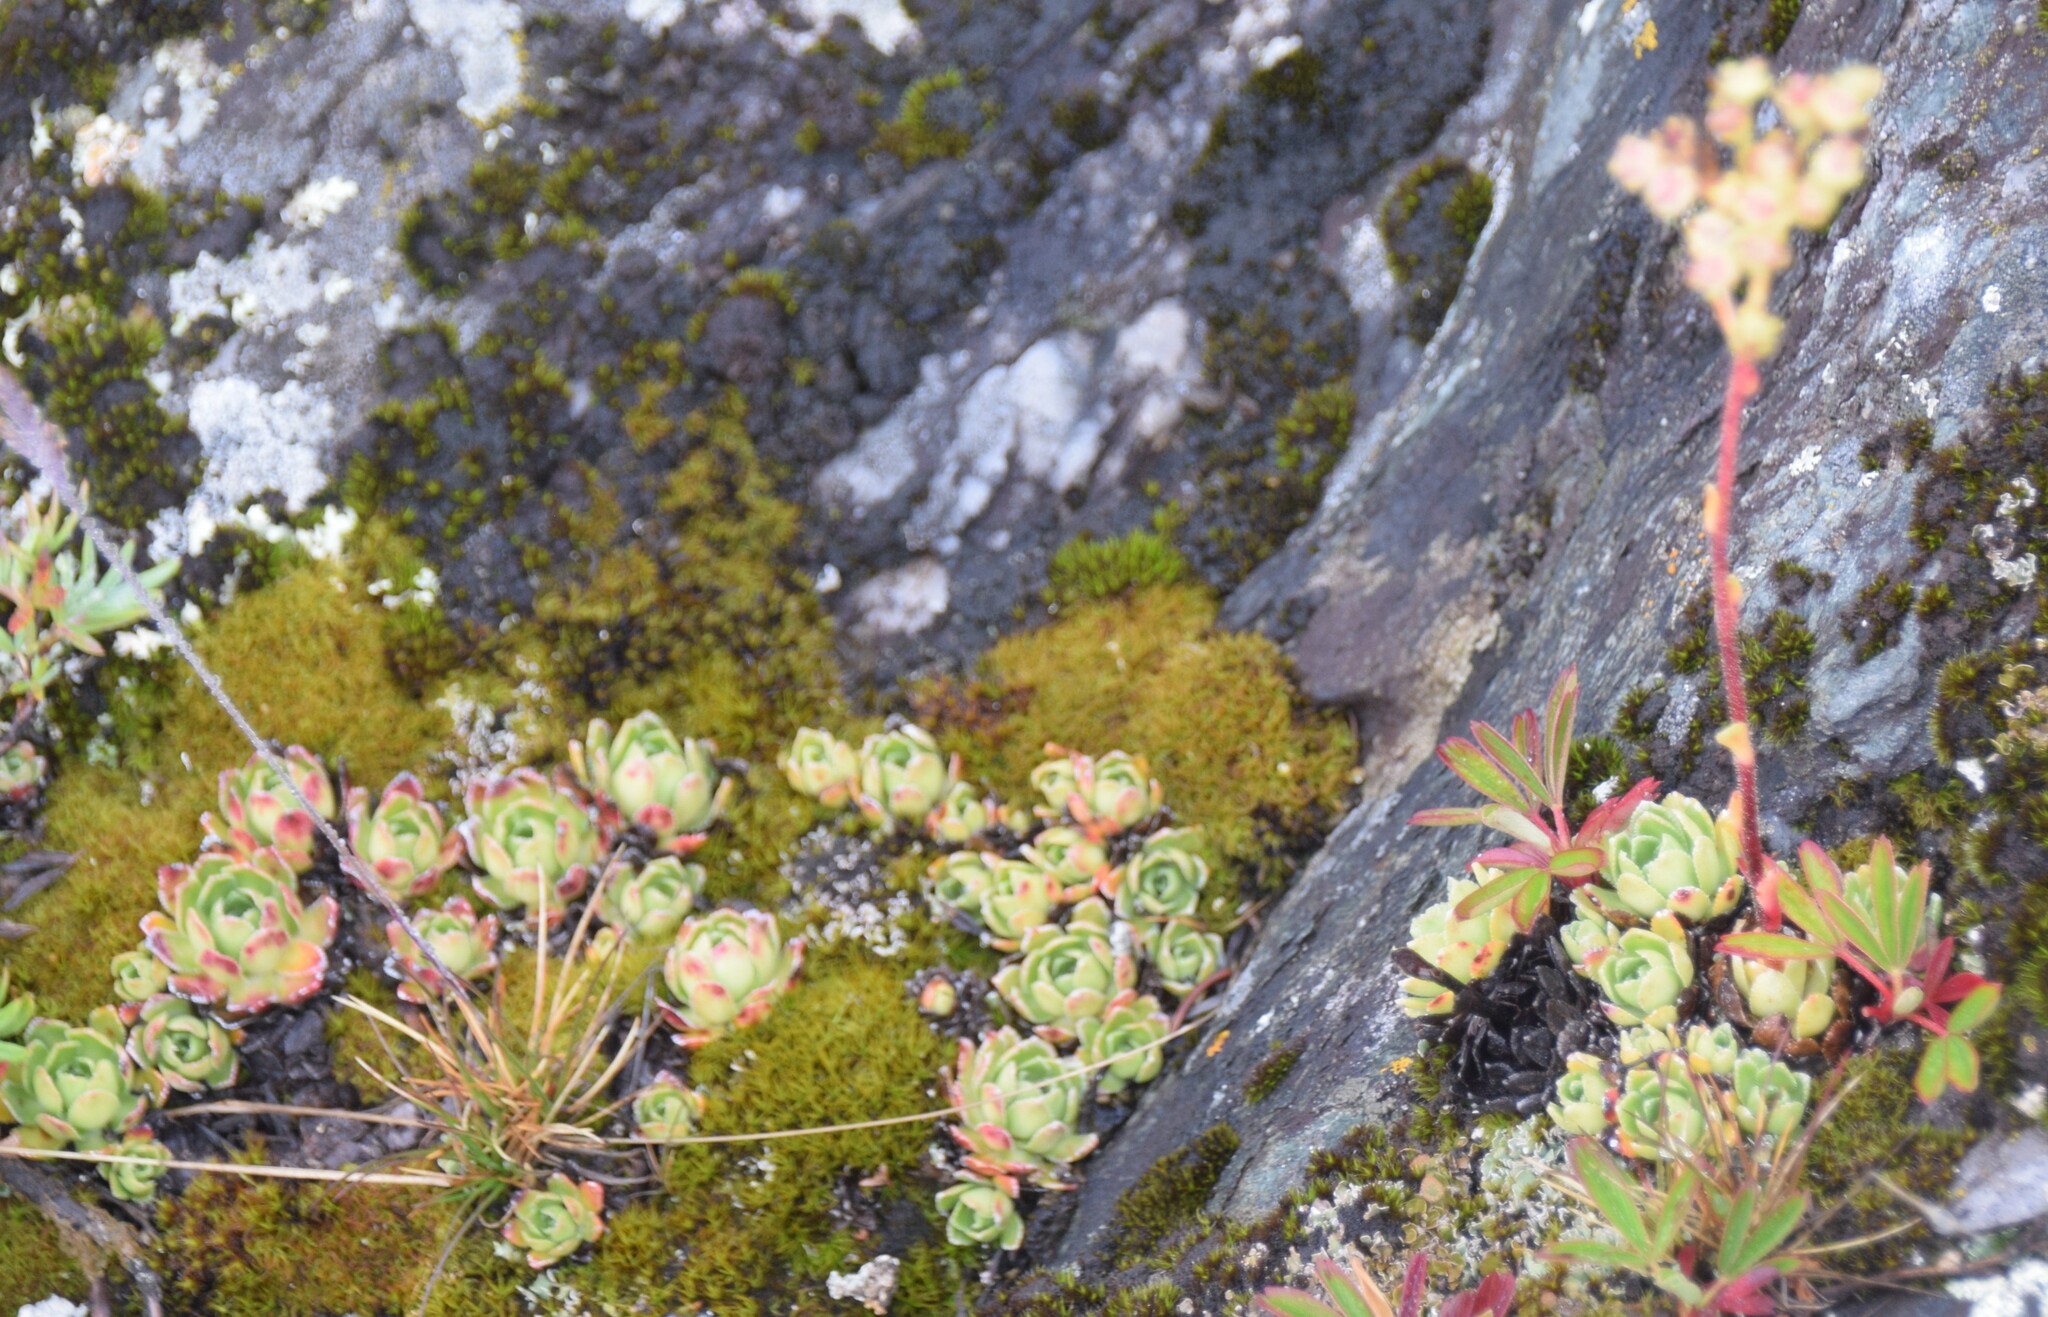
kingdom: Plantae
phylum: Tracheophyta
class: Magnoliopsida
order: Saxifragales
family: Saxifragaceae
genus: Saxifraga
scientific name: Saxifraga paniculata
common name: Livelong saxifrage
